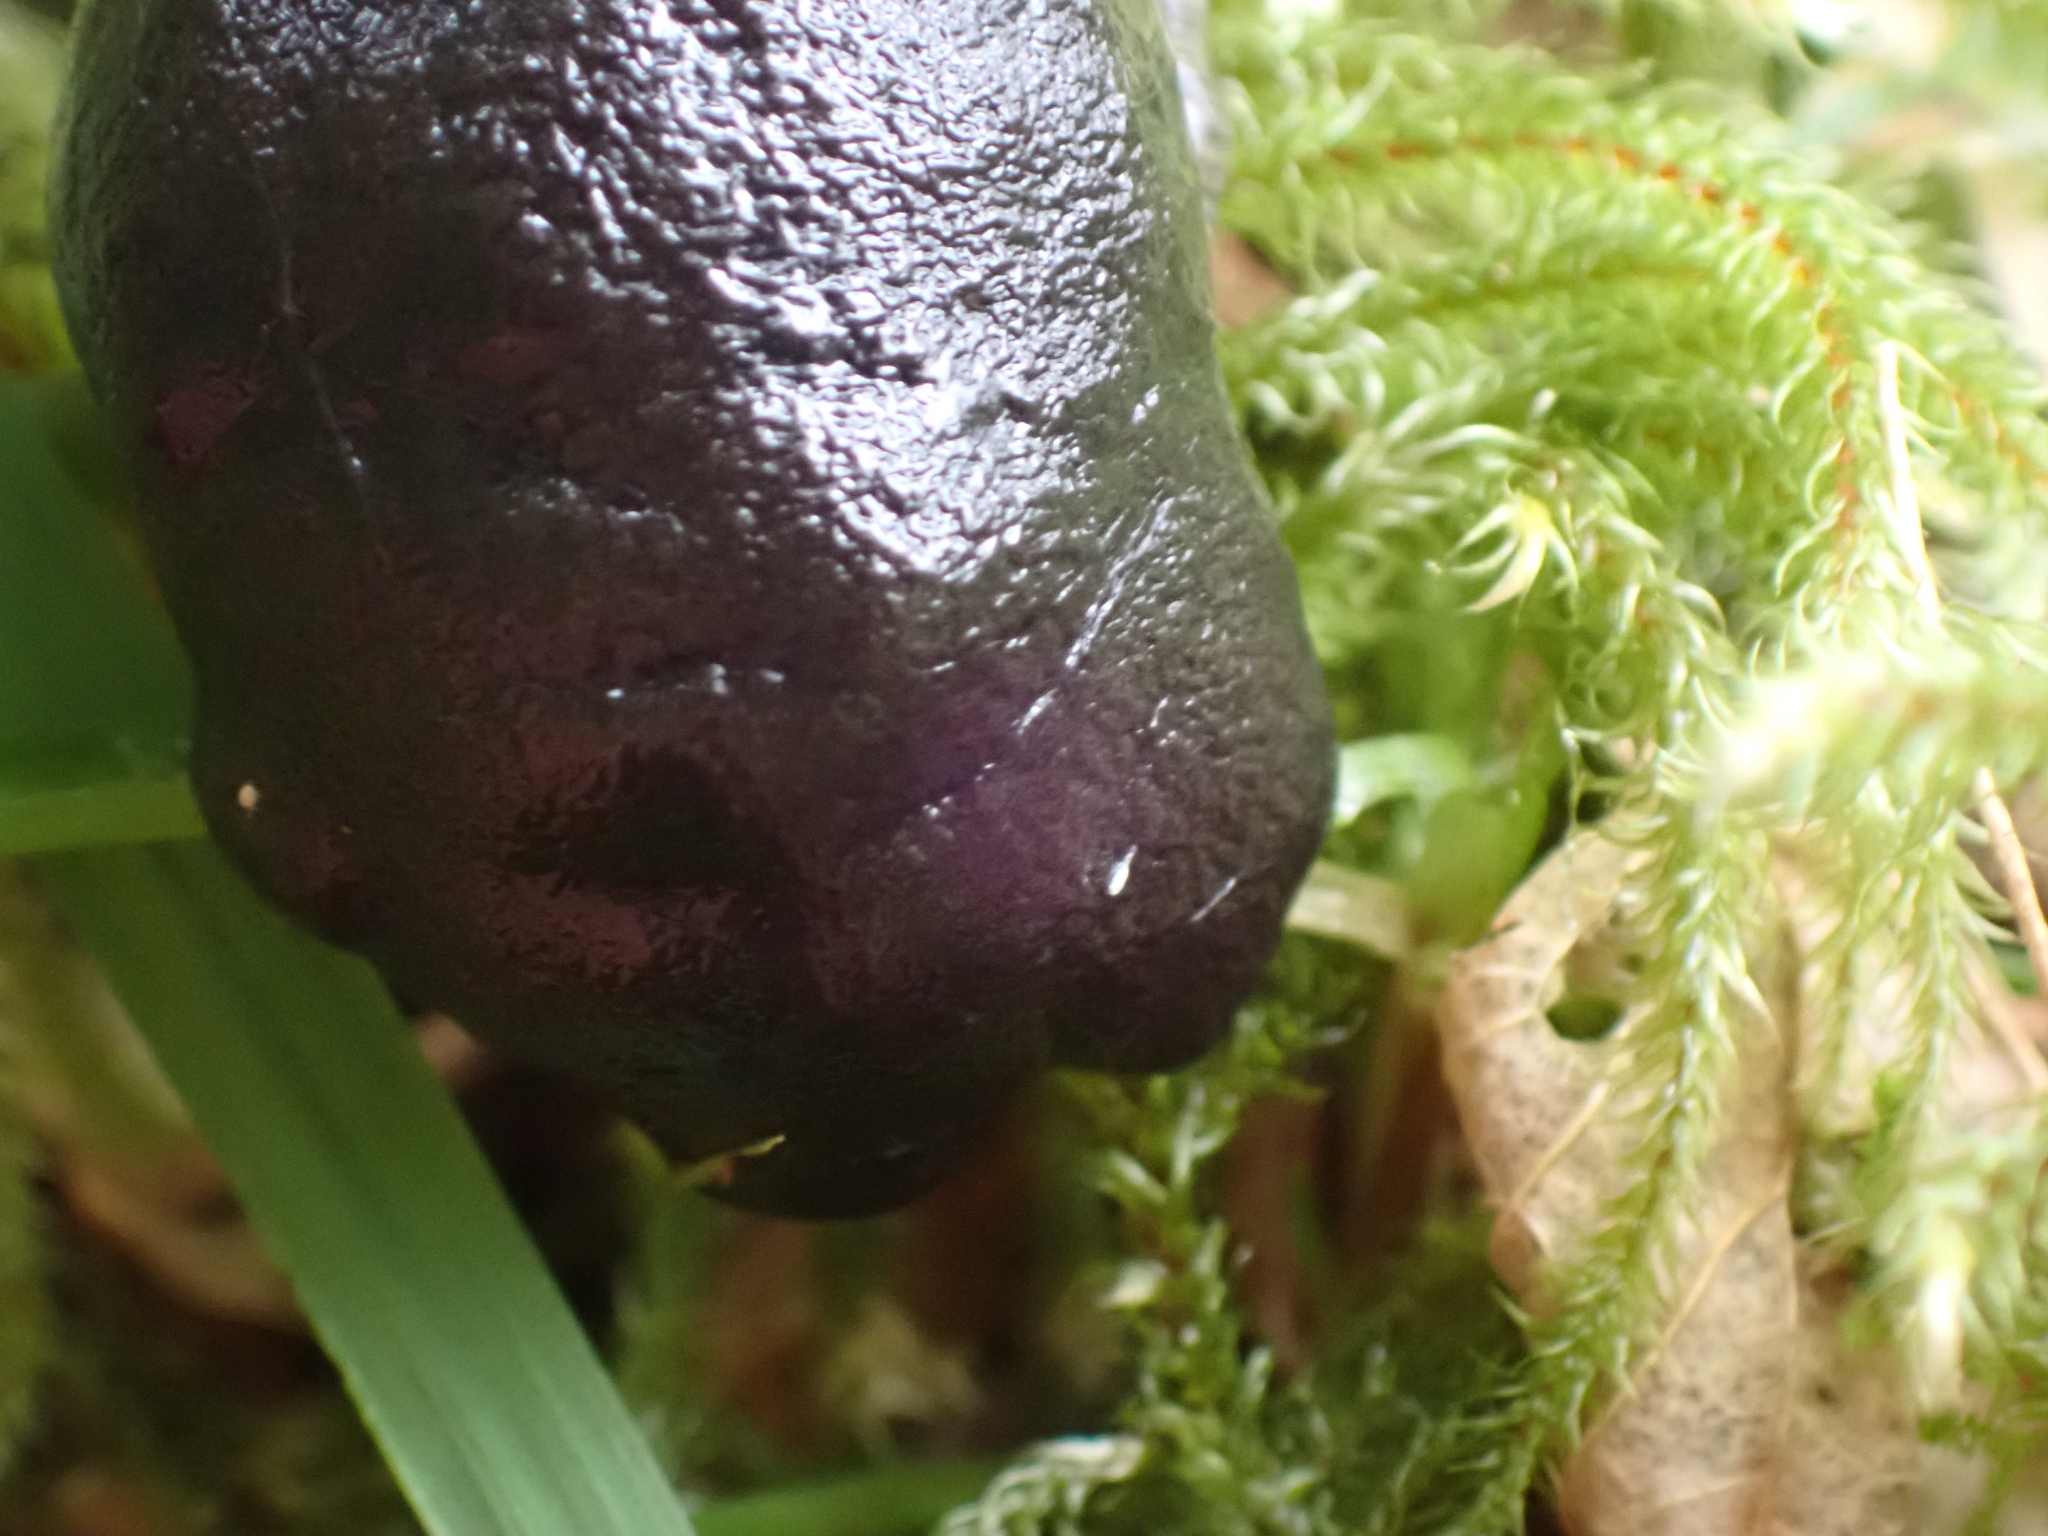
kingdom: Animalia
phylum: Mollusca
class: Gastropoda
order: Stylommatophora
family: Ariolimacidae
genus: Ariolimax
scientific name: Ariolimax columbianus
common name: Pacific banana slug
